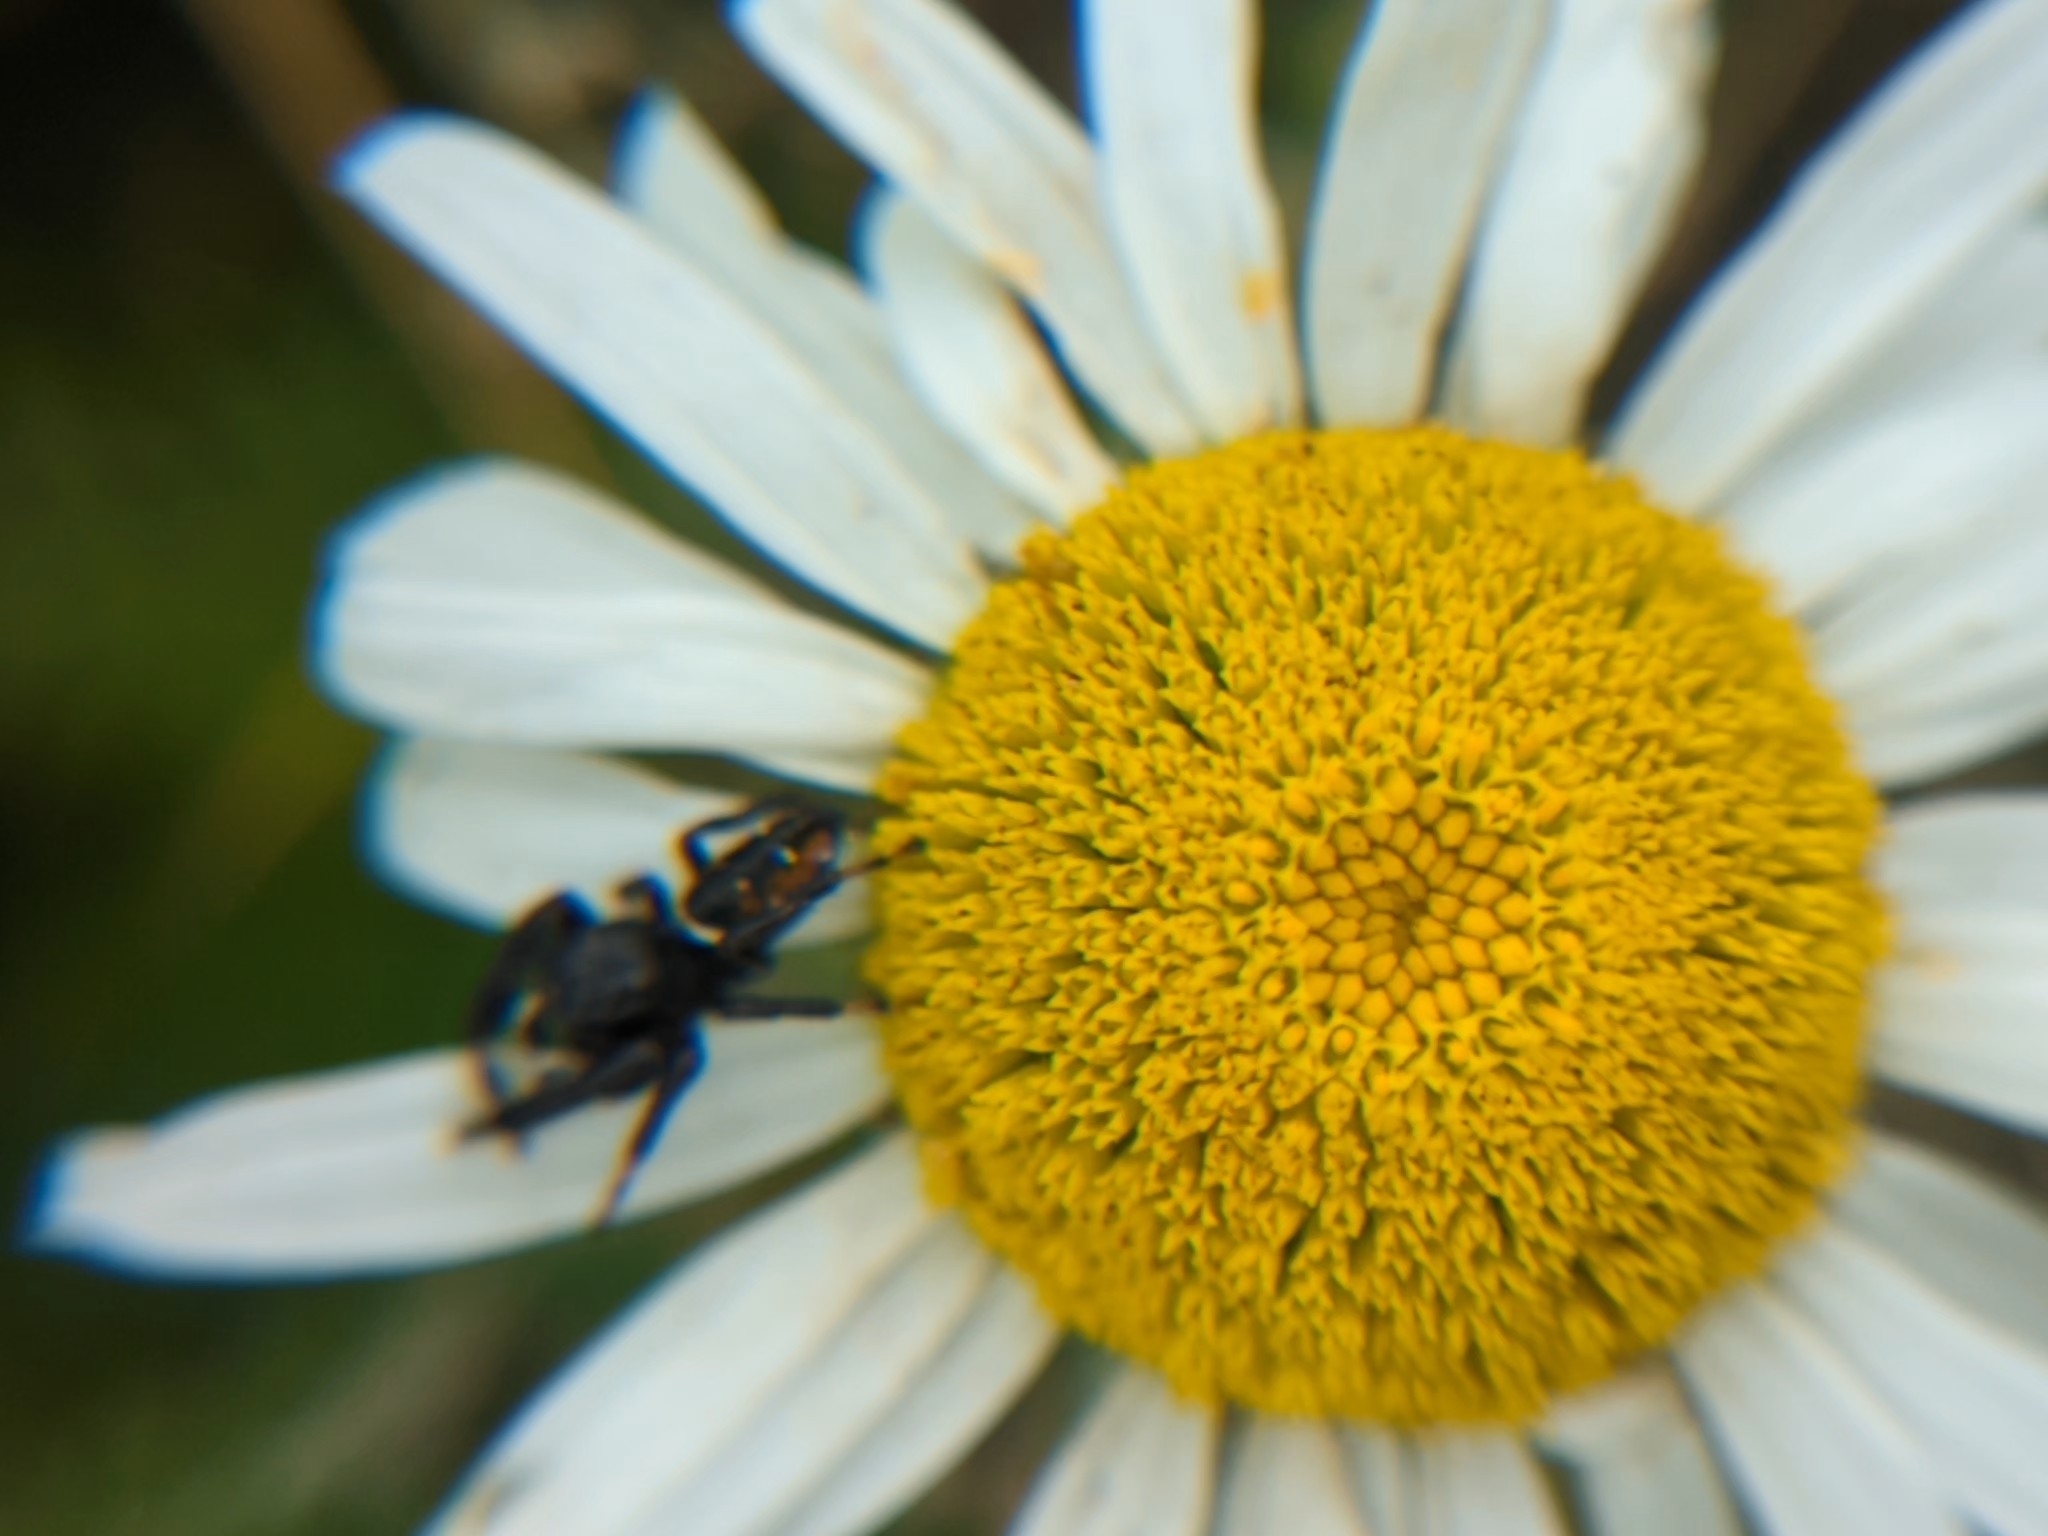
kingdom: Animalia
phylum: Arthropoda
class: Arachnida
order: Araneae
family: Salticidae
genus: Phidippus
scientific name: Phidippus clarus
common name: Brilliant jumping spider
